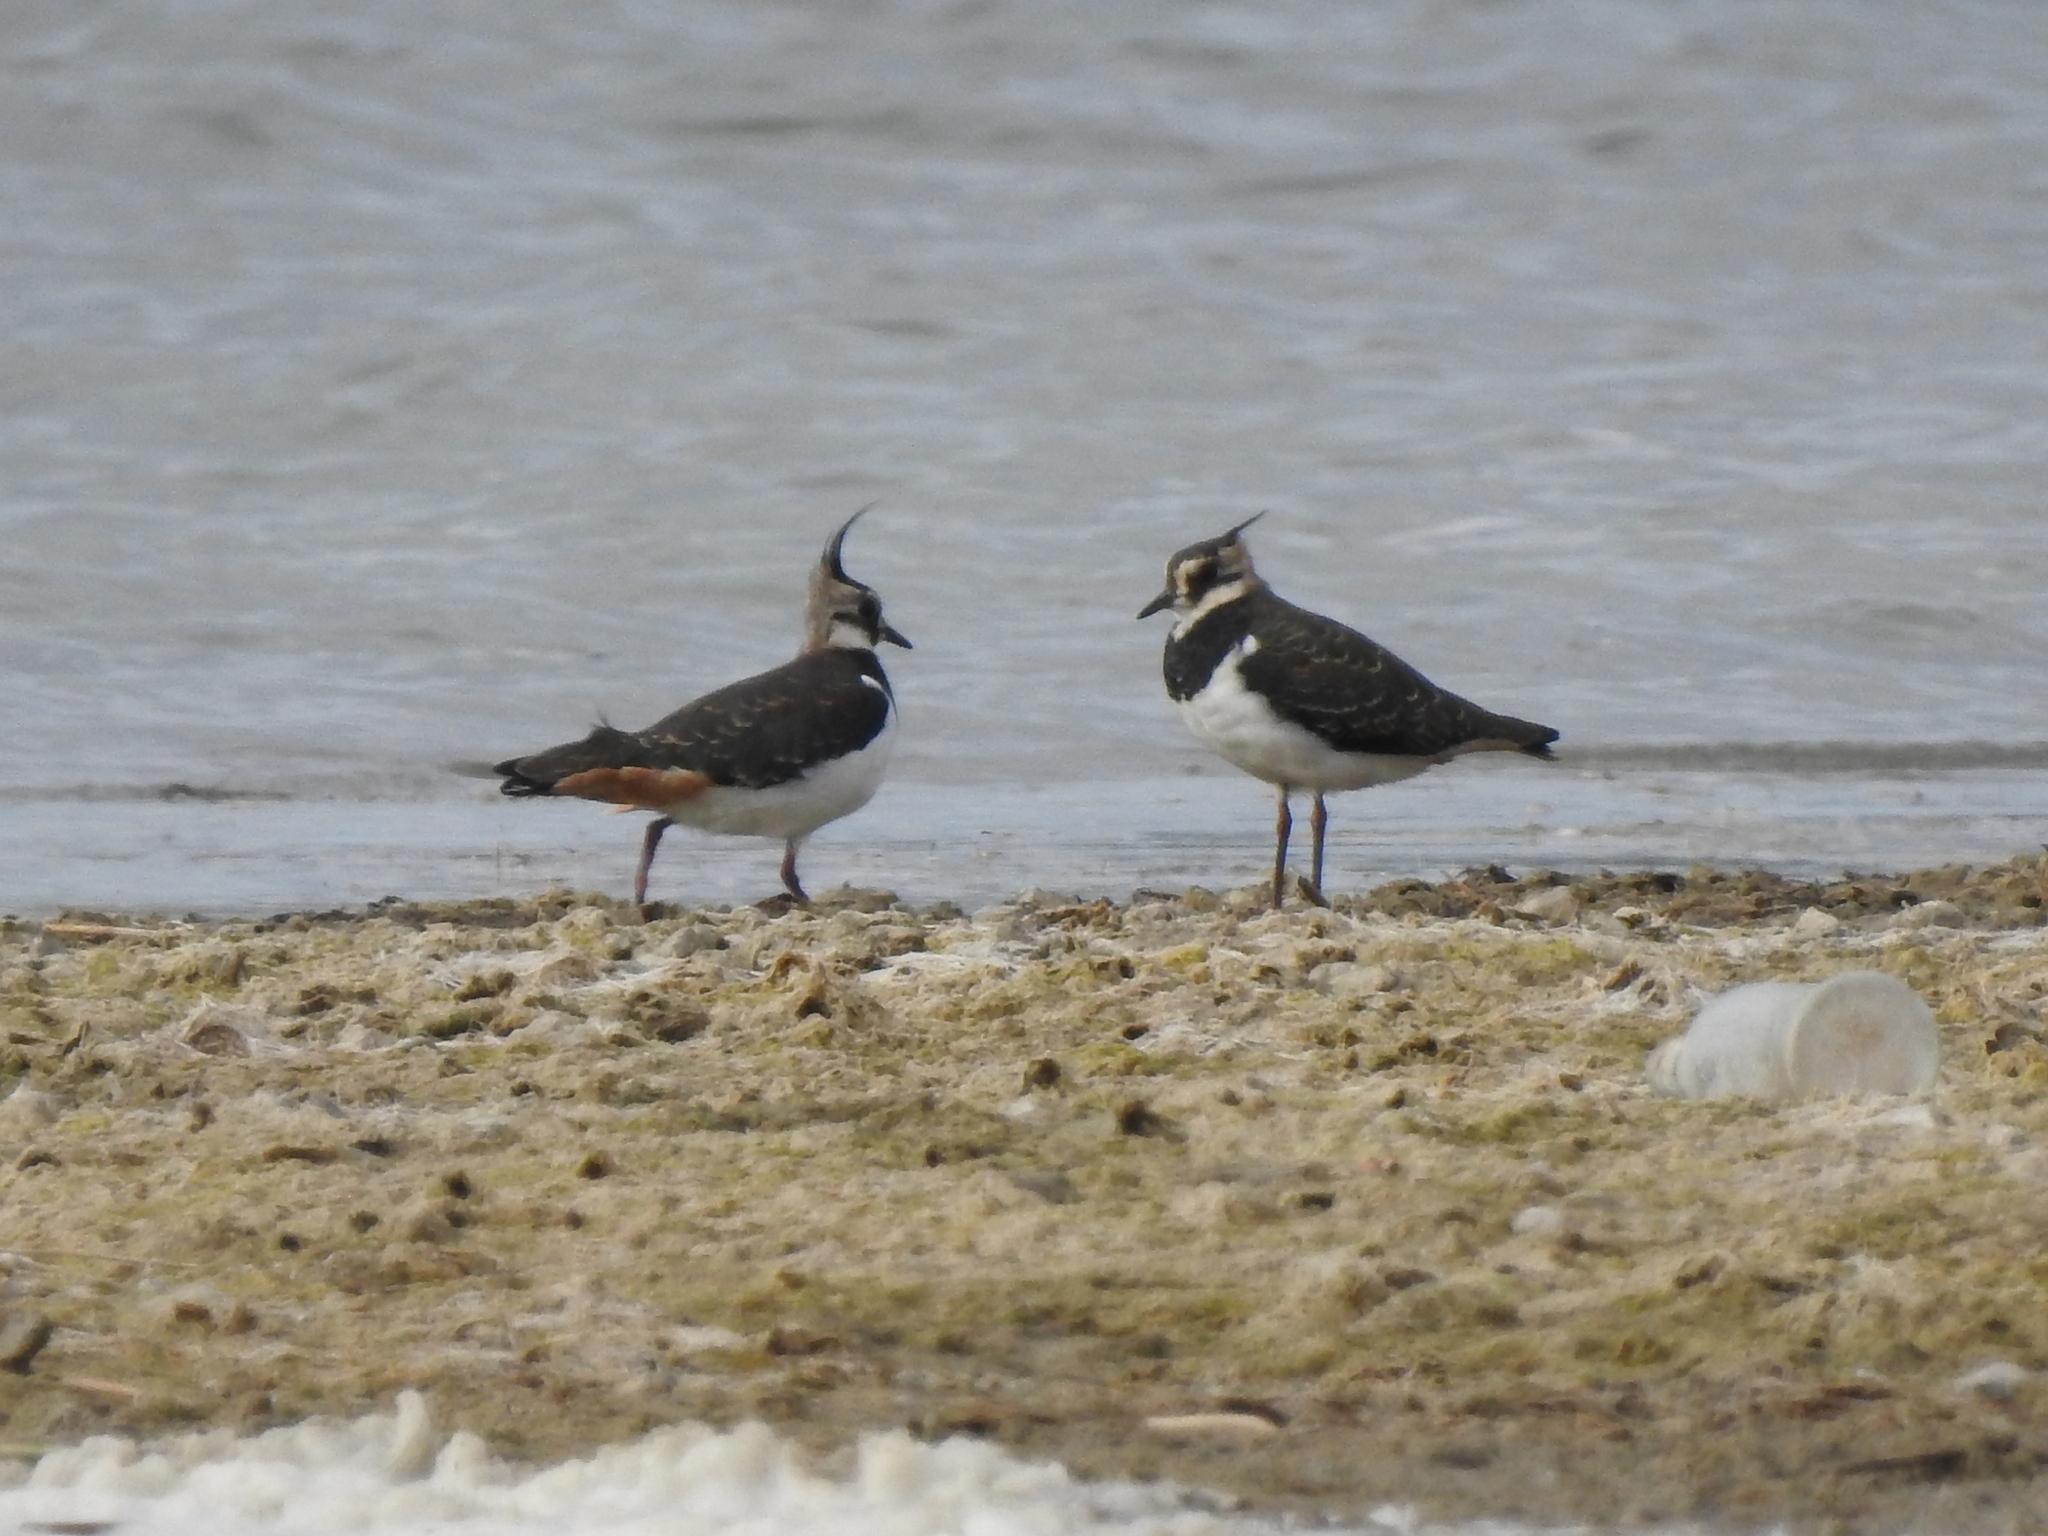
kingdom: Animalia
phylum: Chordata
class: Aves
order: Charadriiformes
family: Charadriidae
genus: Vanellus
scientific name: Vanellus vanellus
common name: Northern lapwing
